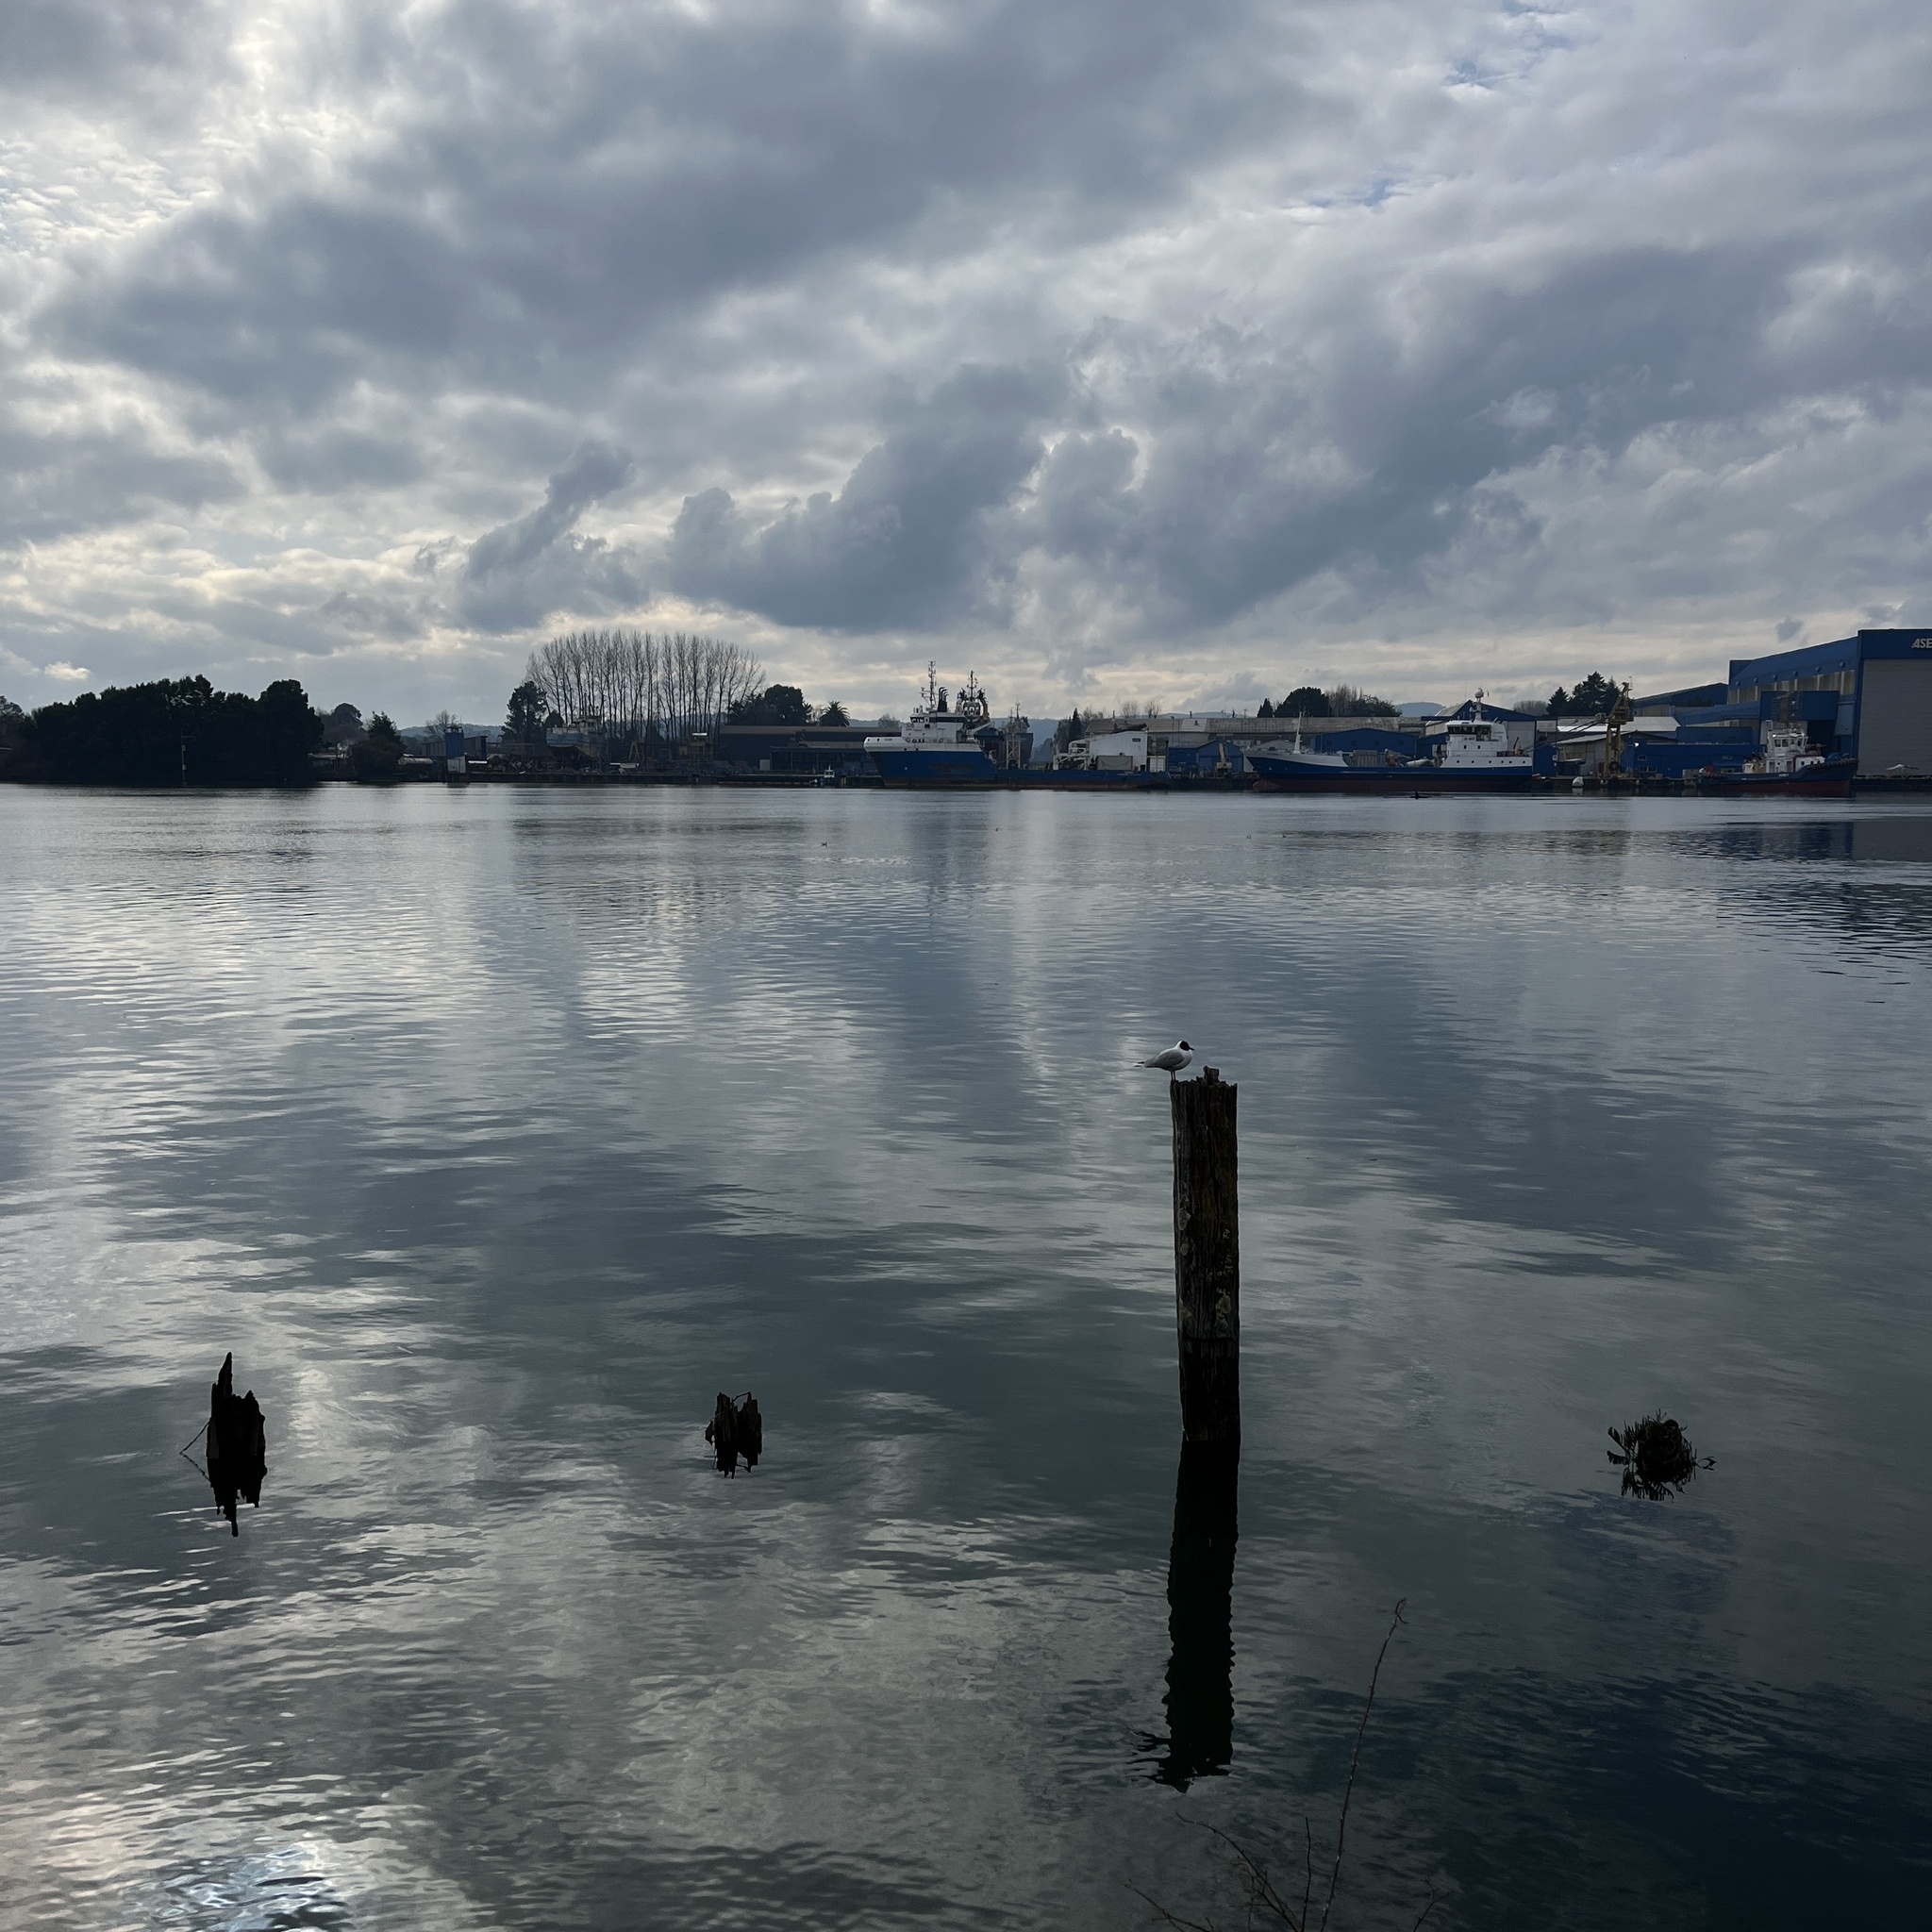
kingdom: Animalia
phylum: Chordata
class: Aves
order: Charadriiformes
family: Laridae
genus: Chroicocephalus
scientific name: Chroicocephalus maculipennis
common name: Brown-hooded gull
